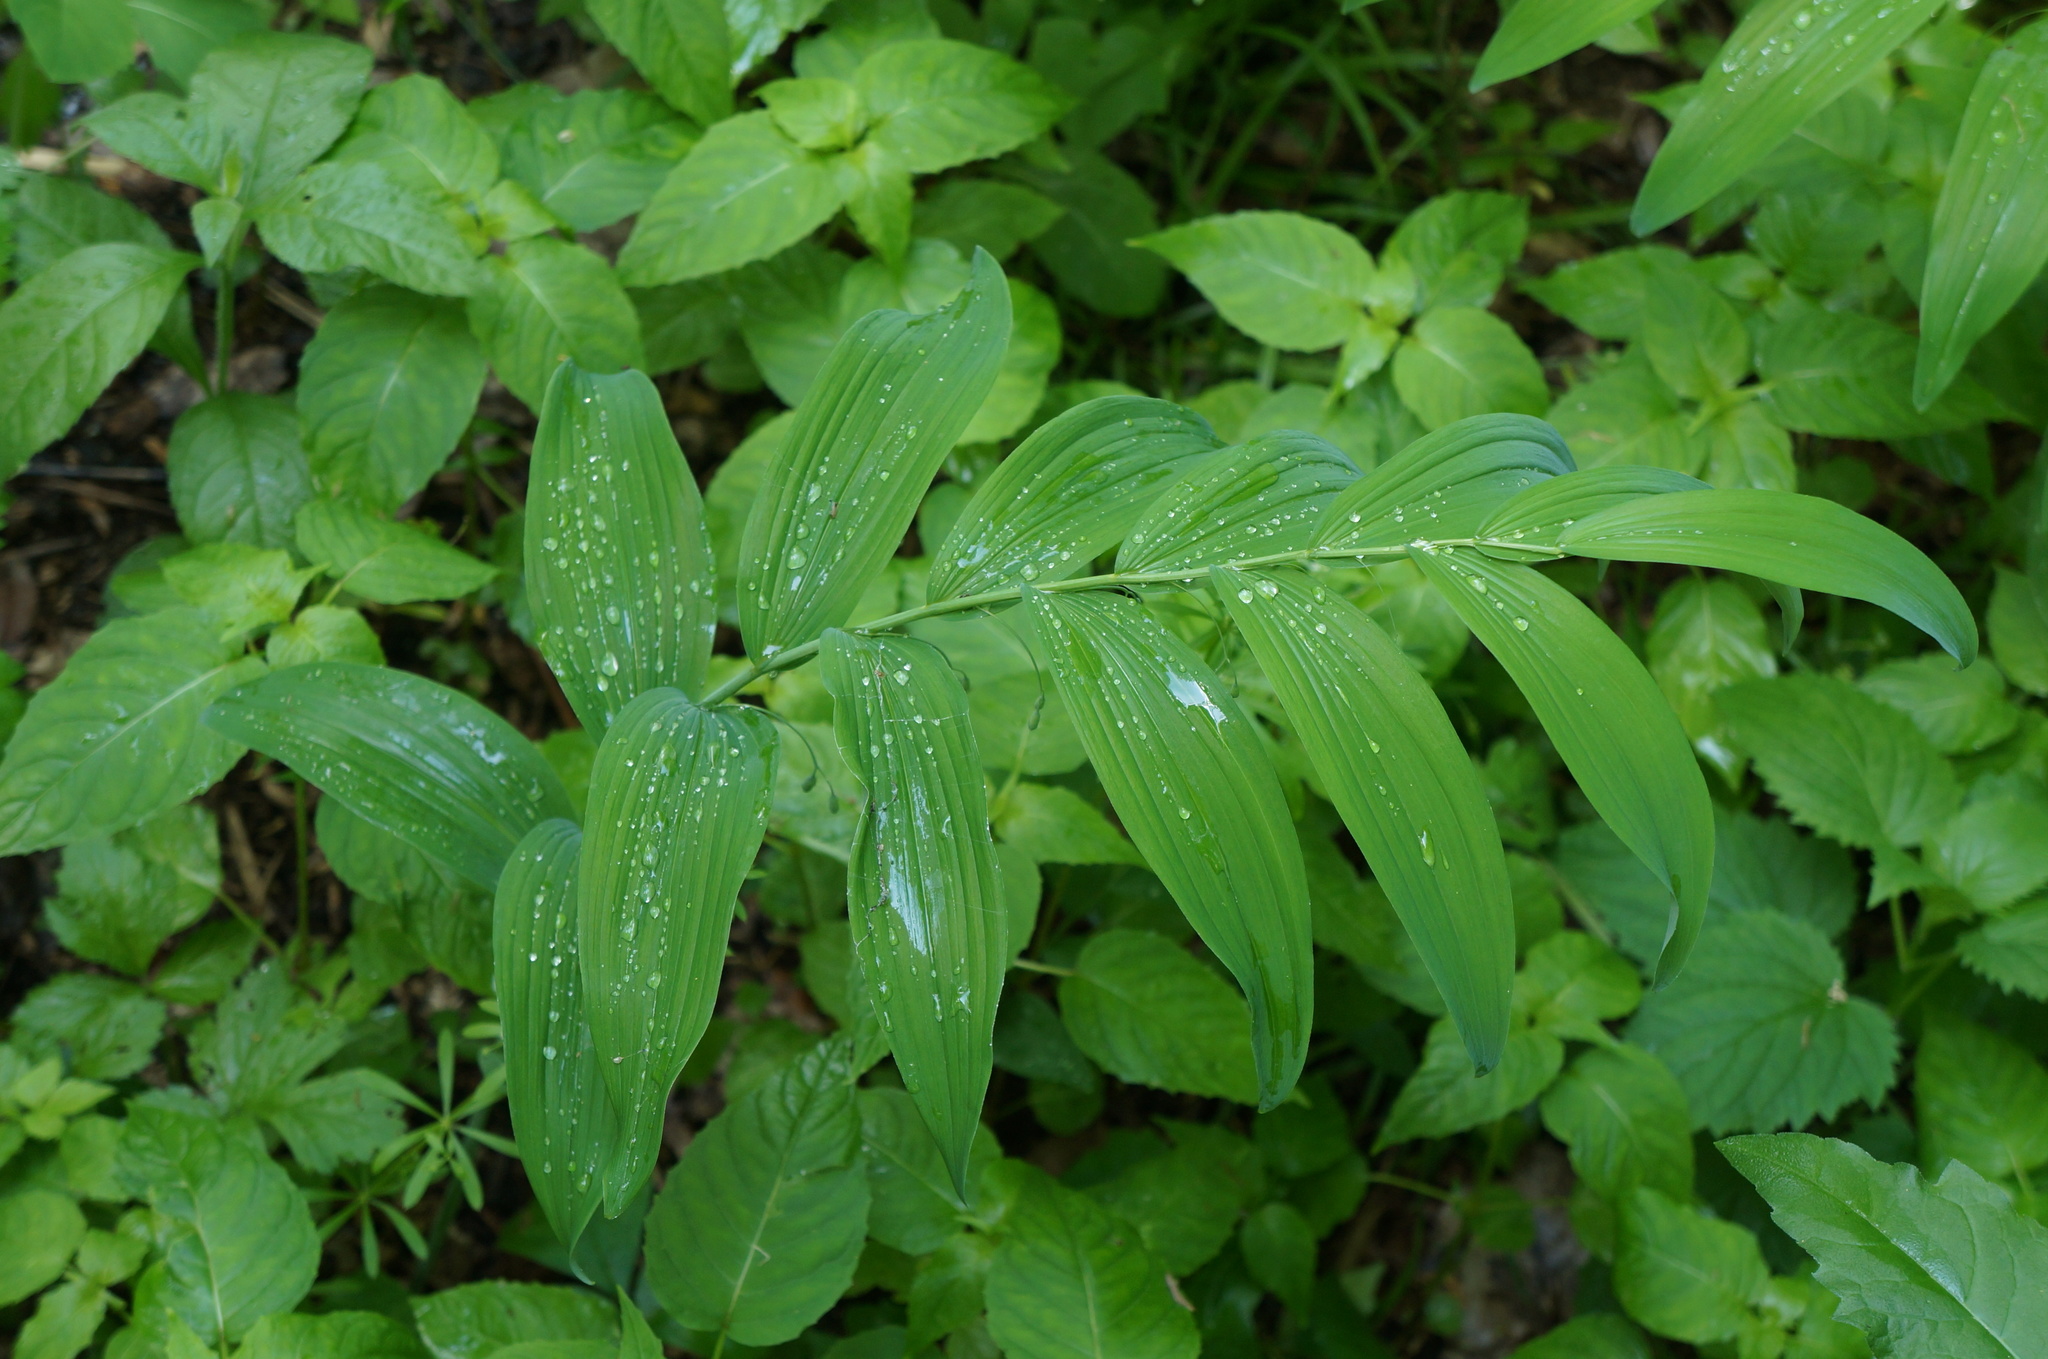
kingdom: Plantae
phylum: Tracheophyta
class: Liliopsida
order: Asparagales
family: Asparagaceae
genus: Polygonatum
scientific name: Polygonatum biflorum
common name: American solomon's-seal
